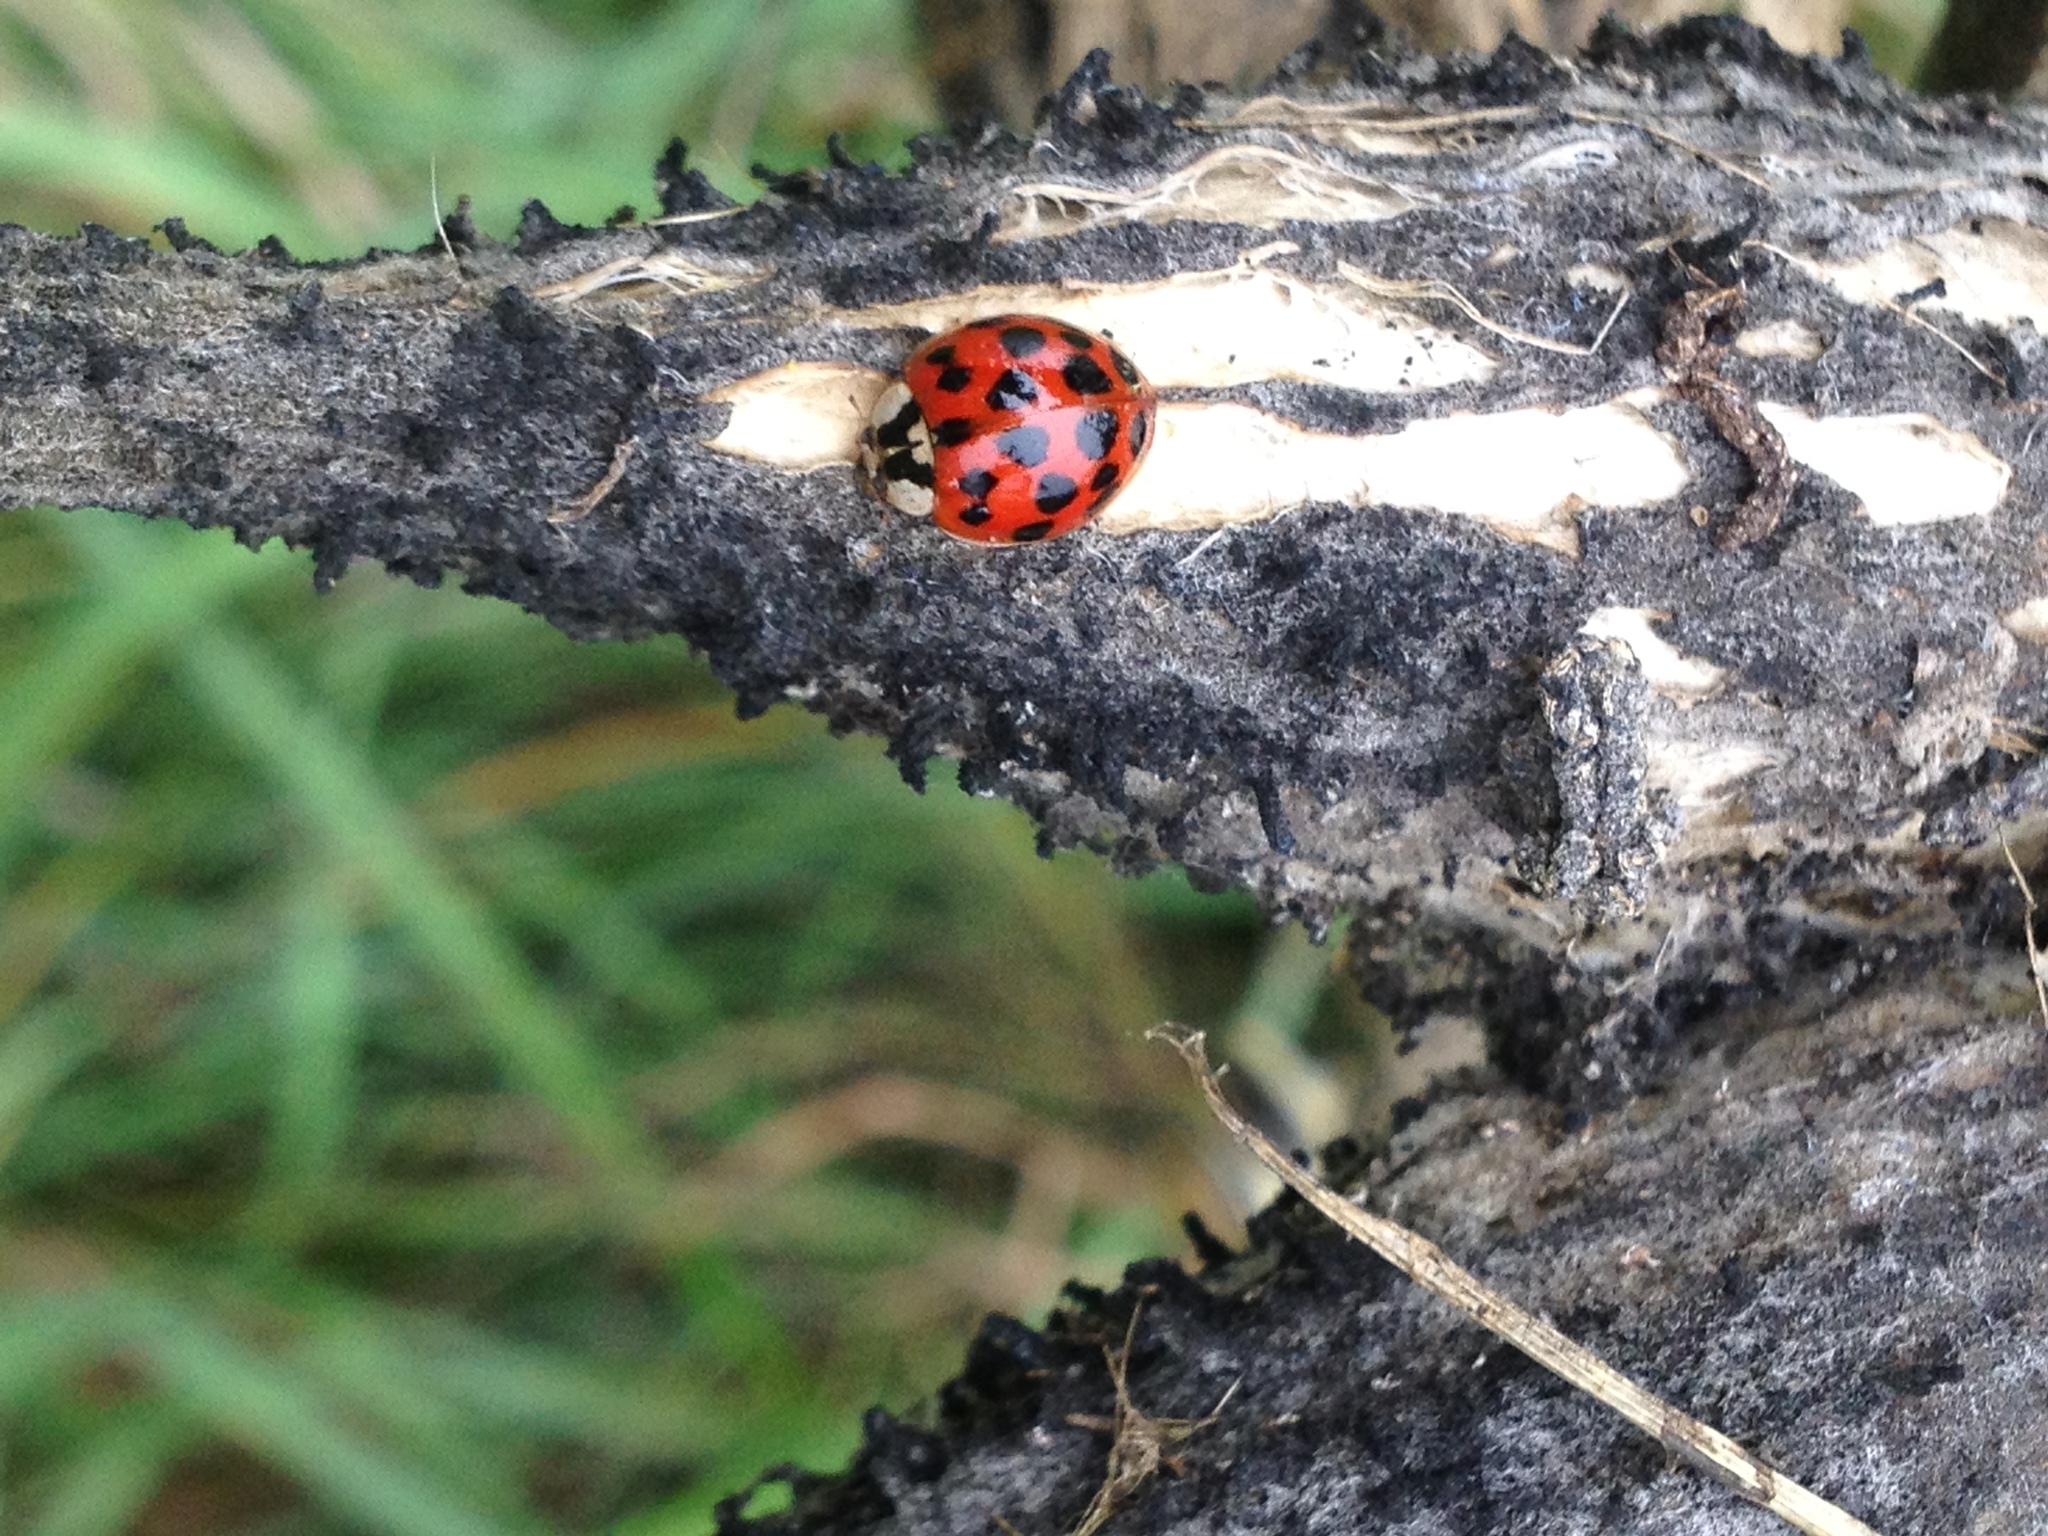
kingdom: Animalia
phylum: Arthropoda
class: Insecta
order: Coleoptera
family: Coccinellidae
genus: Harmonia
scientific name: Harmonia axyridis
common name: Harlequin ladybird
